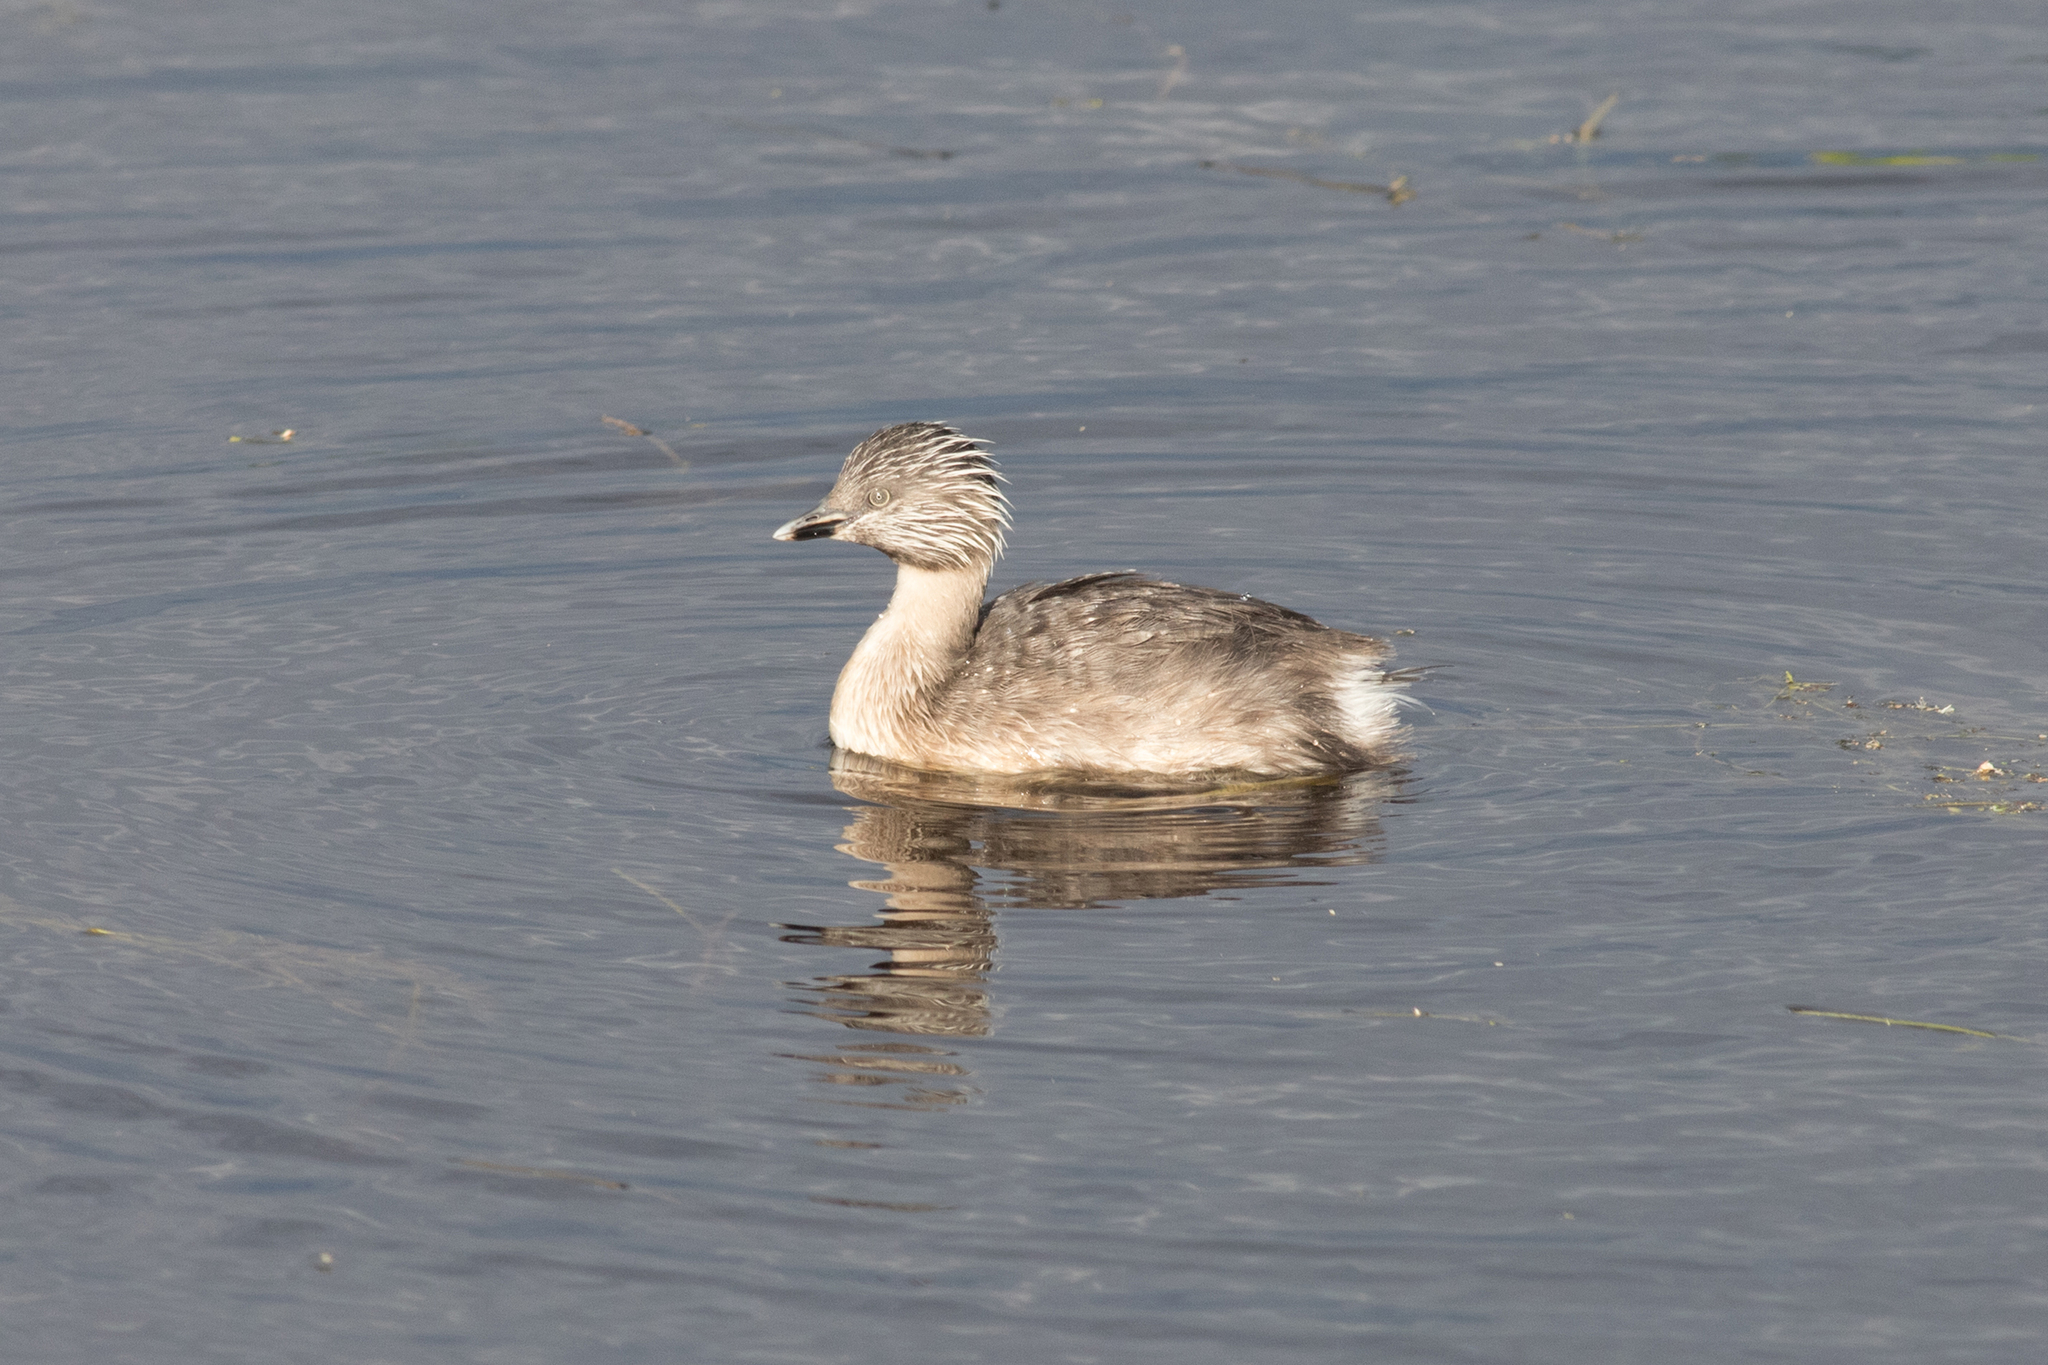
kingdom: Animalia
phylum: Chordata
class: Aves
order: Podicipediformes
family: Podicipedidae
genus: Poliocephalus
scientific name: Poliocephalus poliocephalus
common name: Hoary-headed grebe
